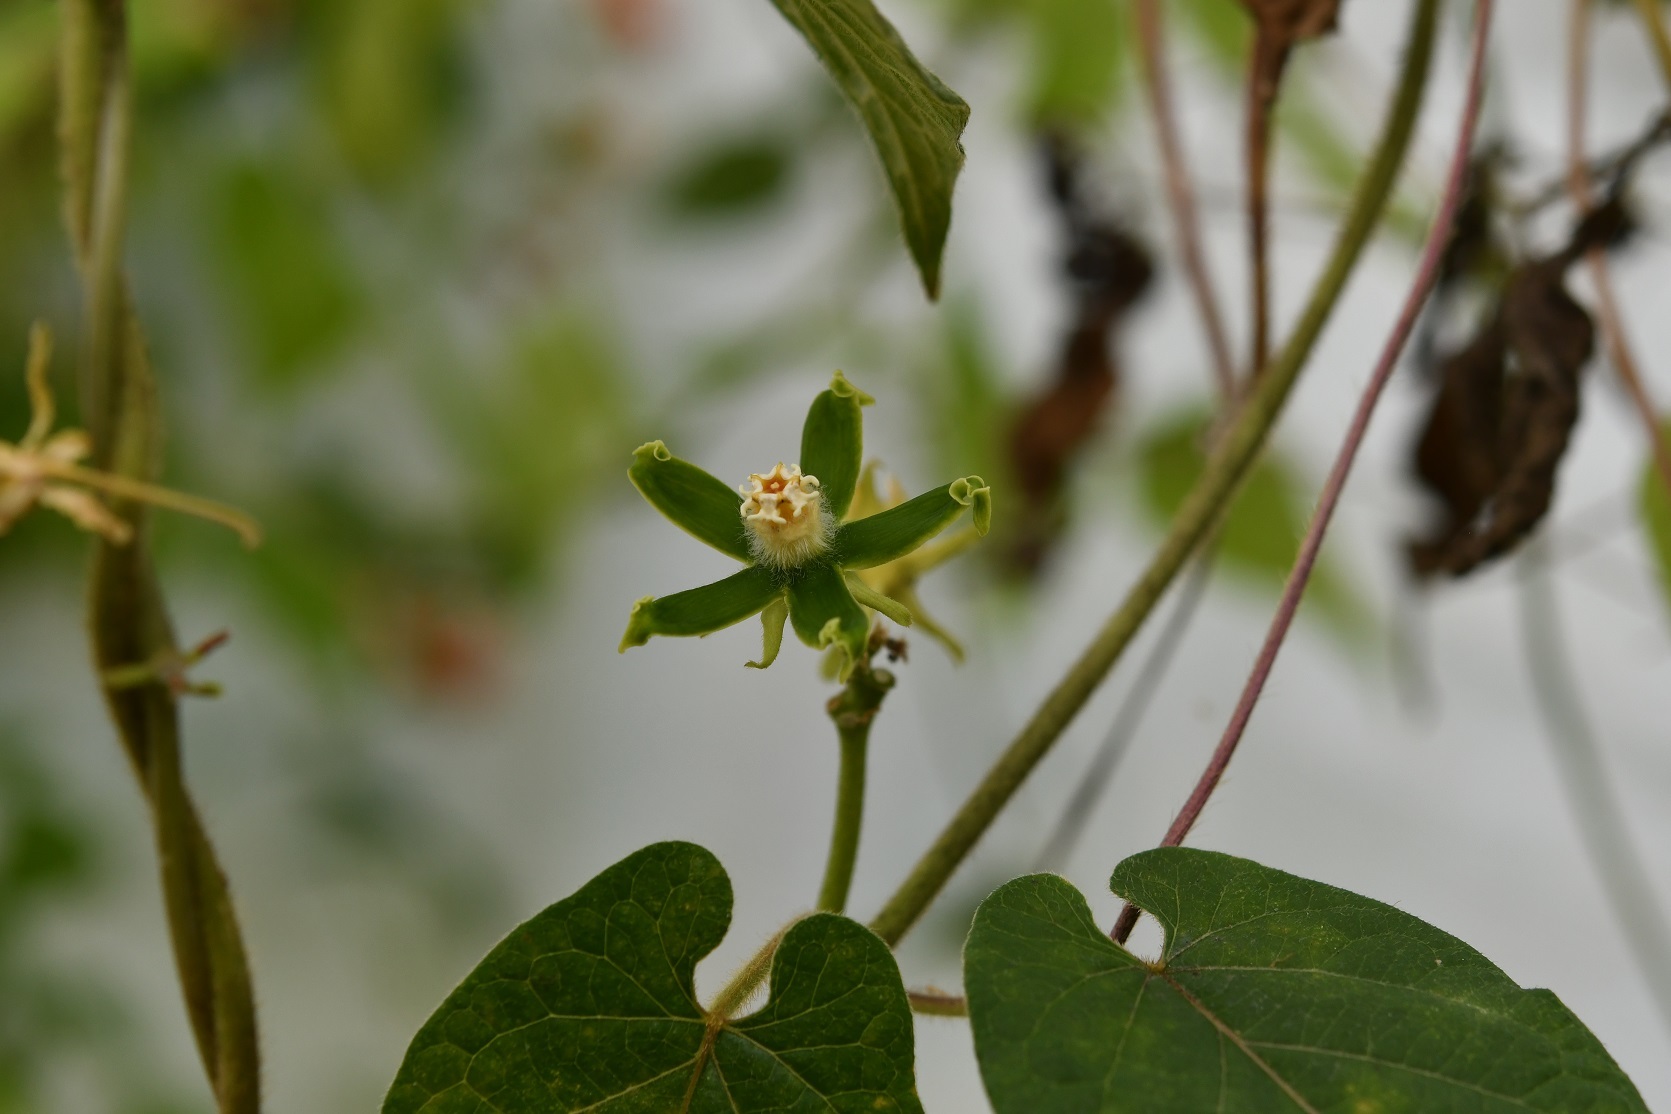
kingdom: Plantae
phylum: Tracheophyta
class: Magnoliopsida
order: Gentianales
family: Apocynaceae
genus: Gonolobus
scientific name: Gonolobus stenosepalus
